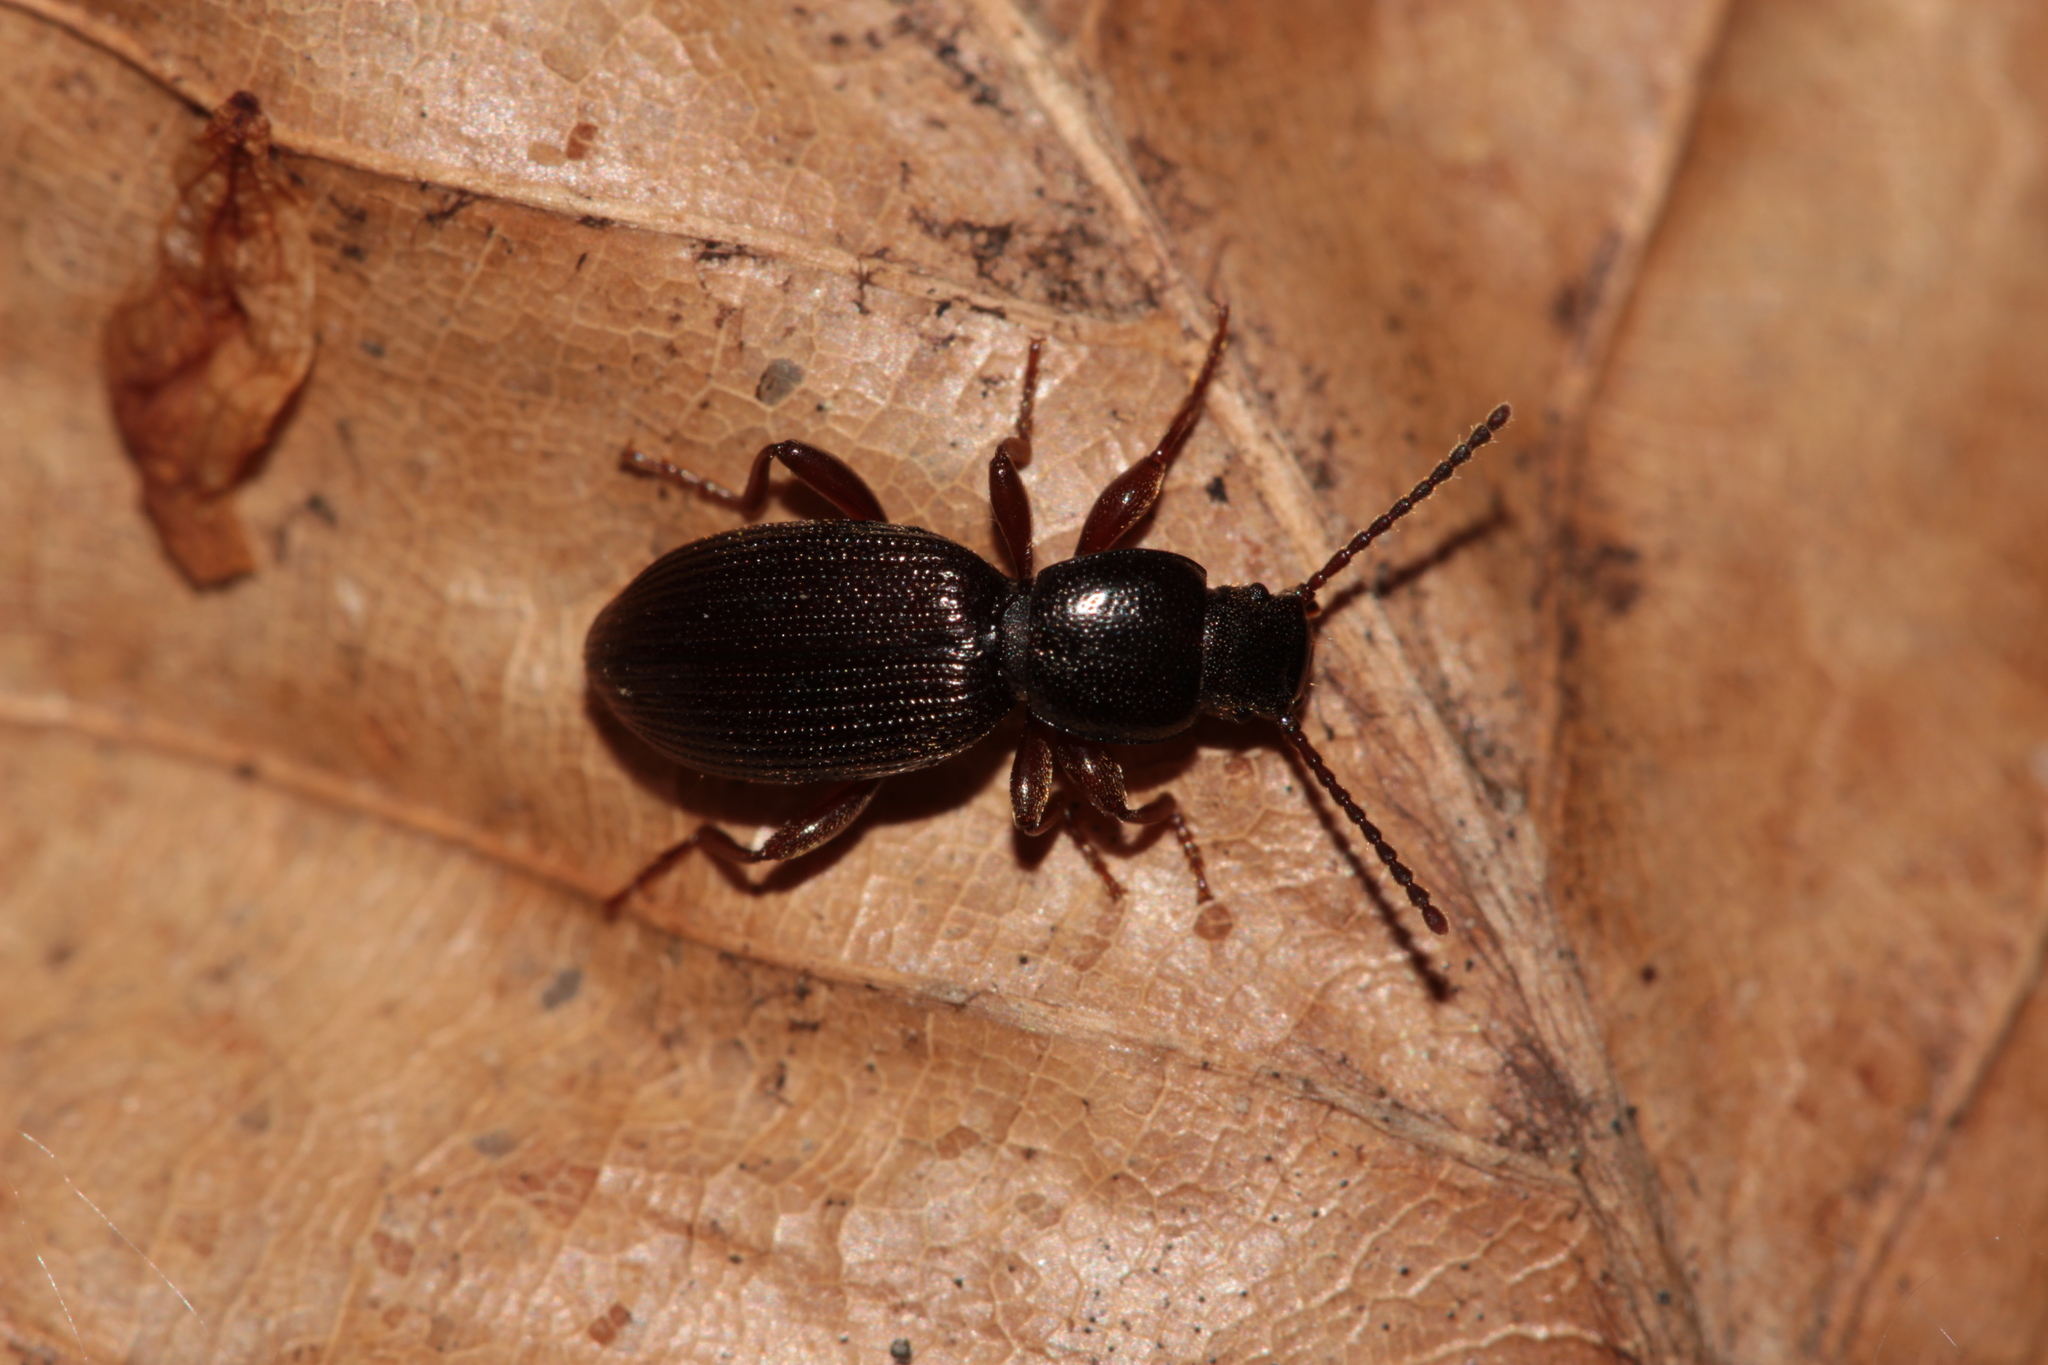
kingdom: Animalia
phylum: Arthropoda
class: Insecta
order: Coleoptera
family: Tenebrionidae
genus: Laena
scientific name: Laena viennensis
